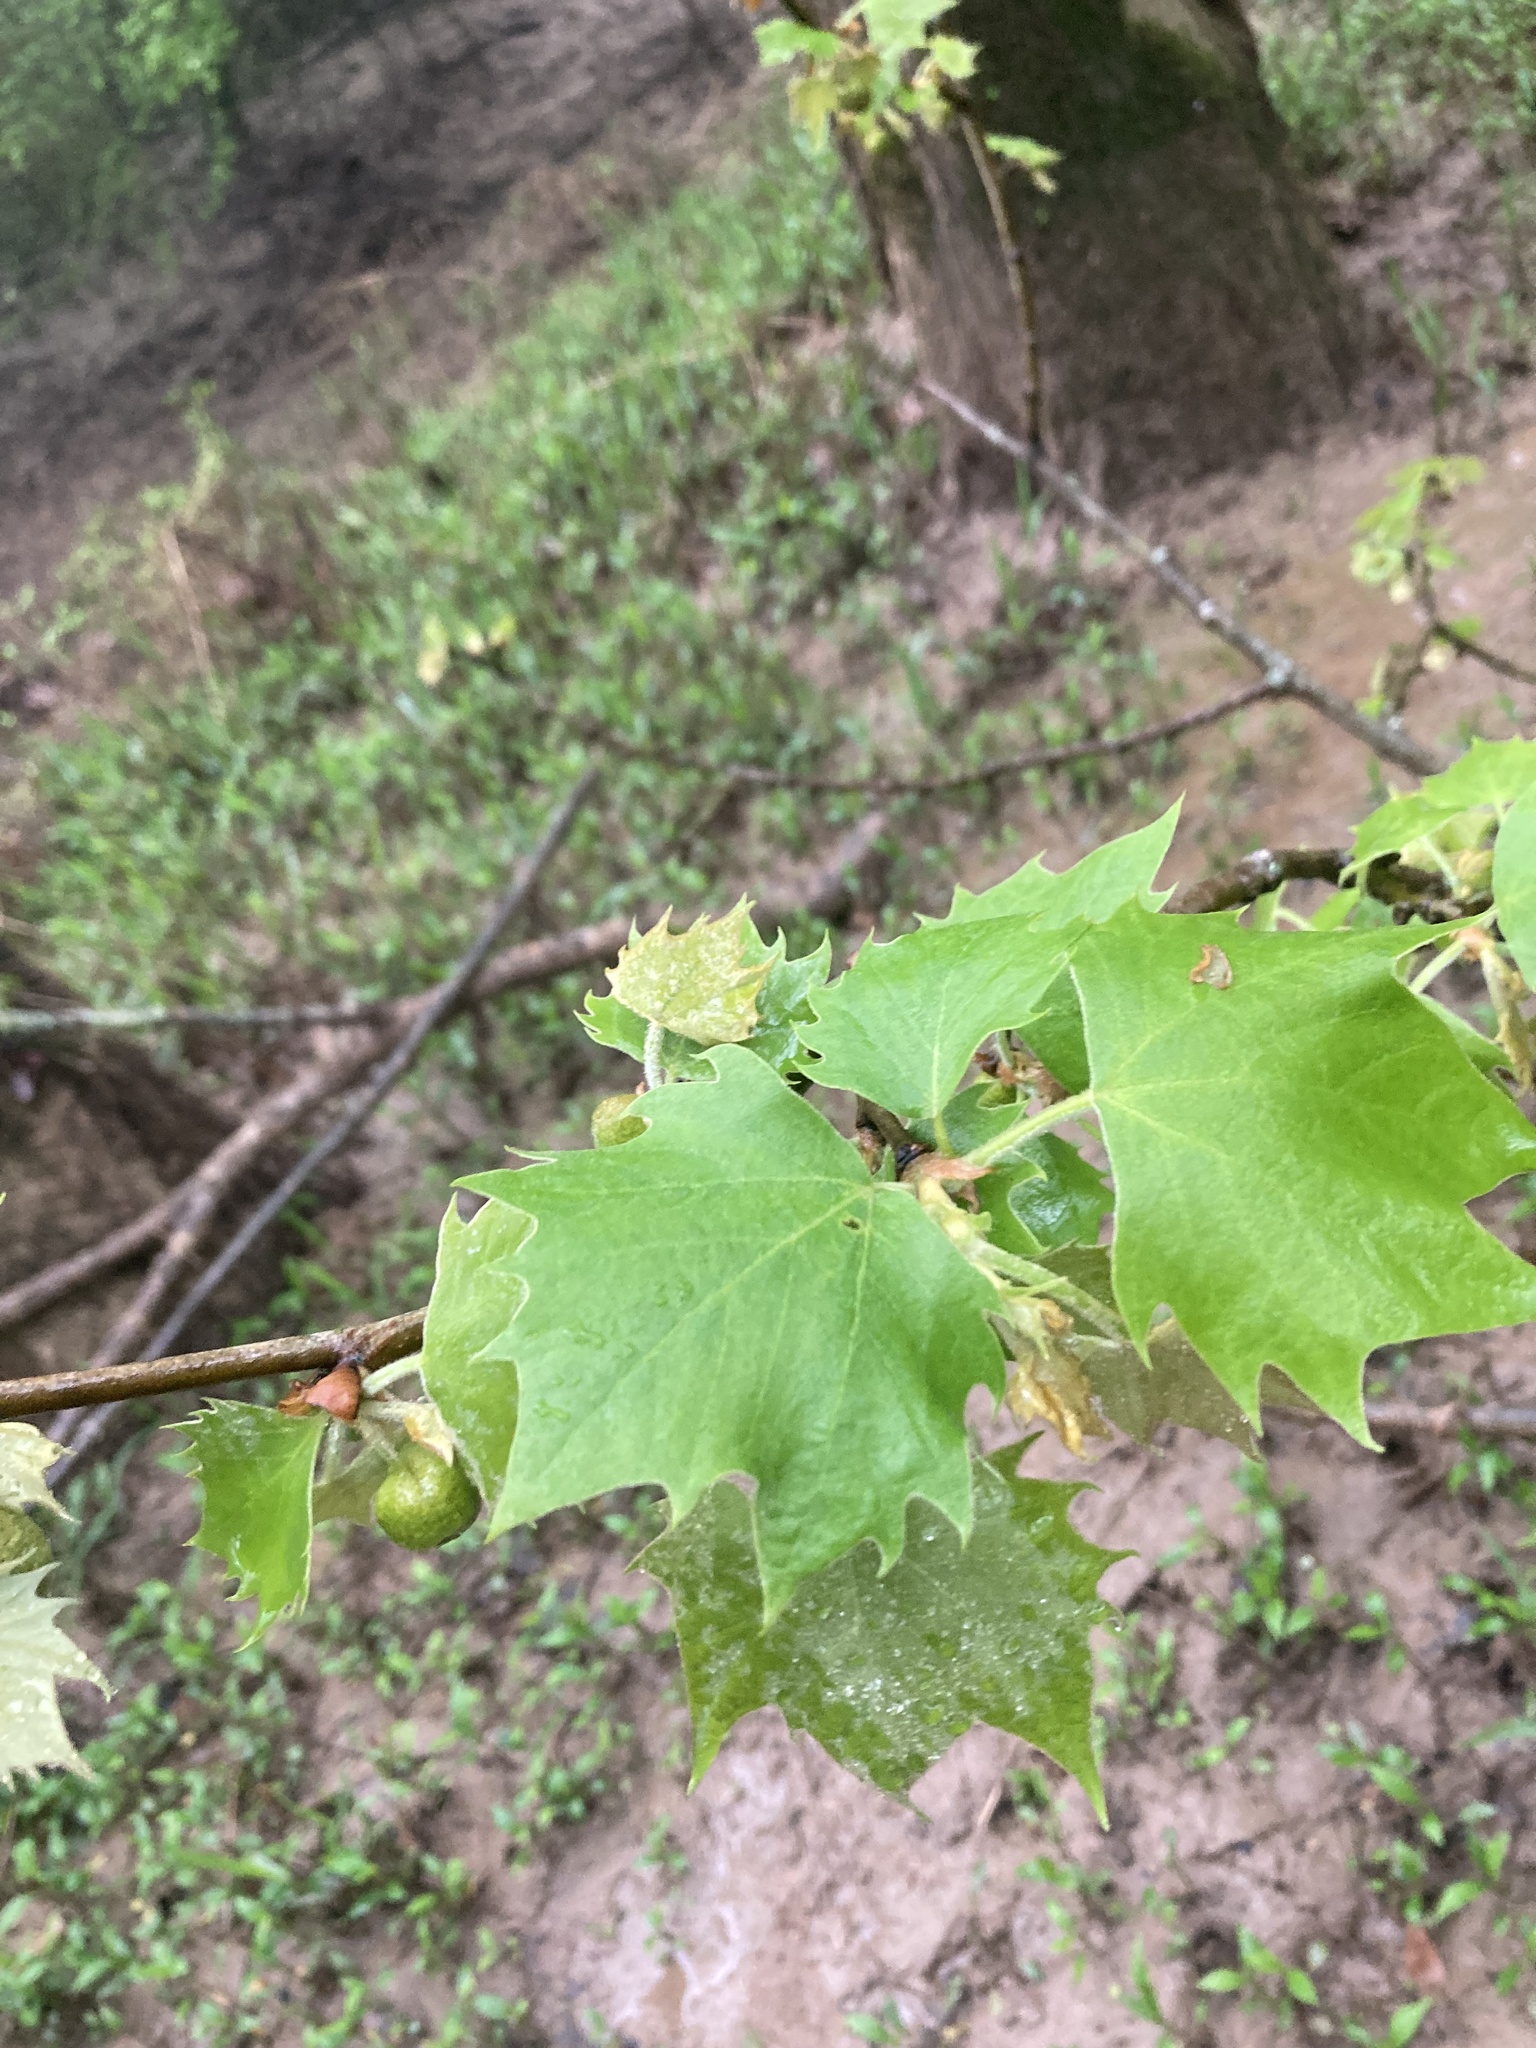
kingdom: Plantae
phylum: Tracheophyta
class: Magnoliopsida
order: Proteales
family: Platanaceae
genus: Platanus
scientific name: Platanus occidentalis
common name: American sycamore
